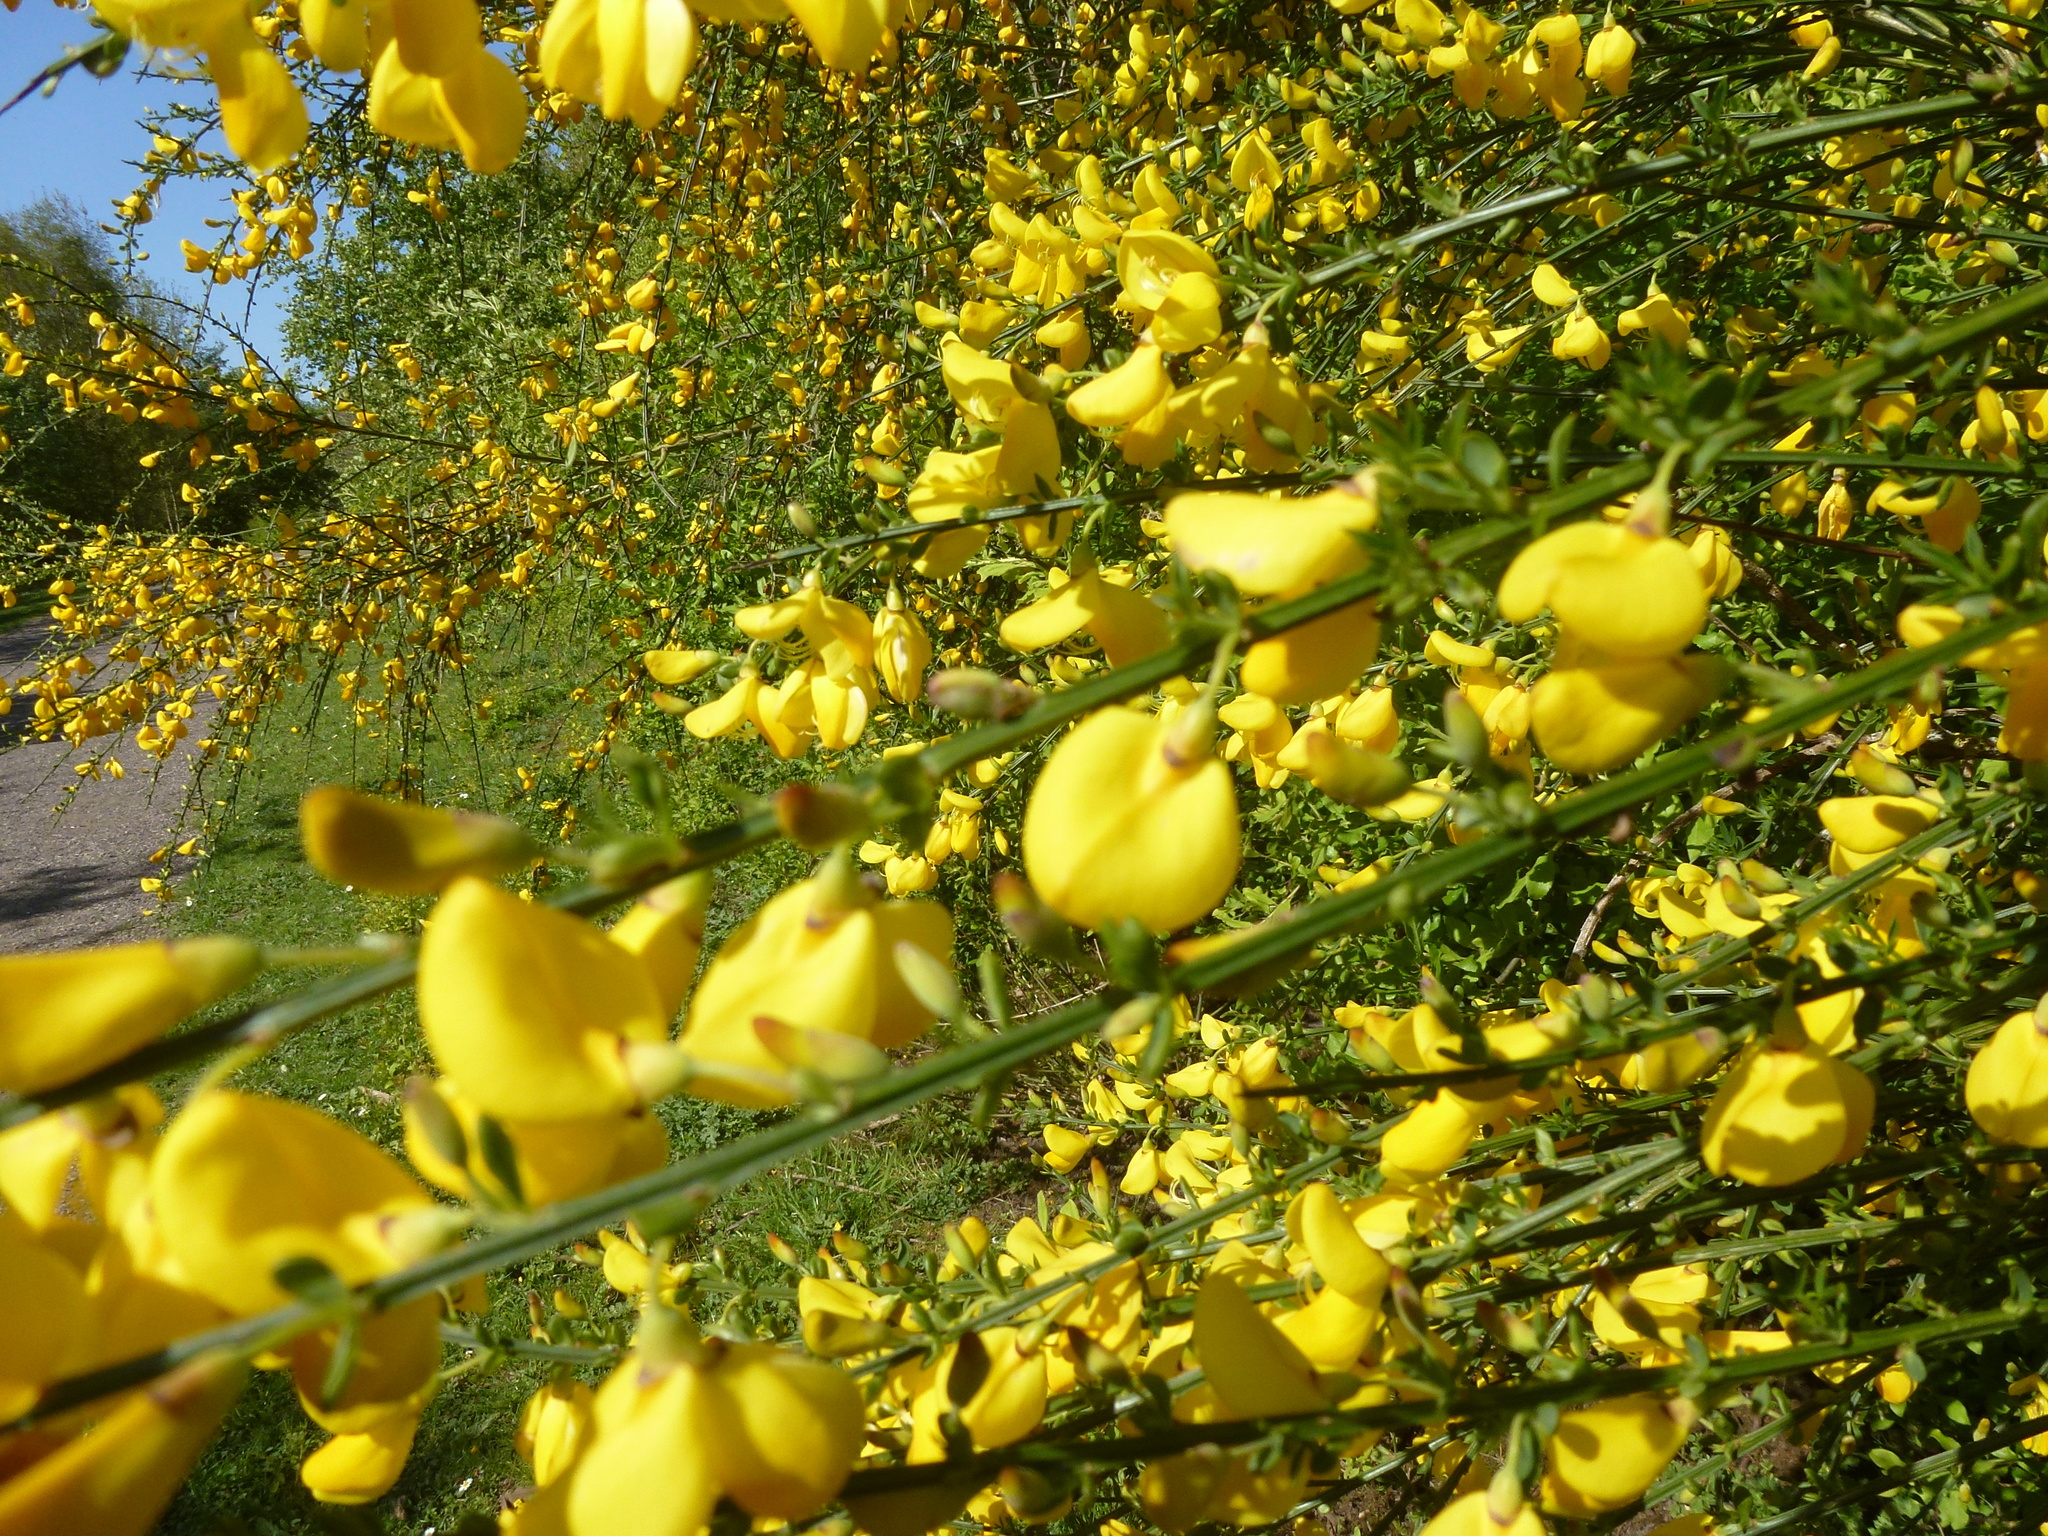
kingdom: Plantae
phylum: Tracheophyta
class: Magnoliopsida
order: Fabales
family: Fabaceae
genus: Cytisus
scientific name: Cytisus scoparius
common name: Scotch broom
